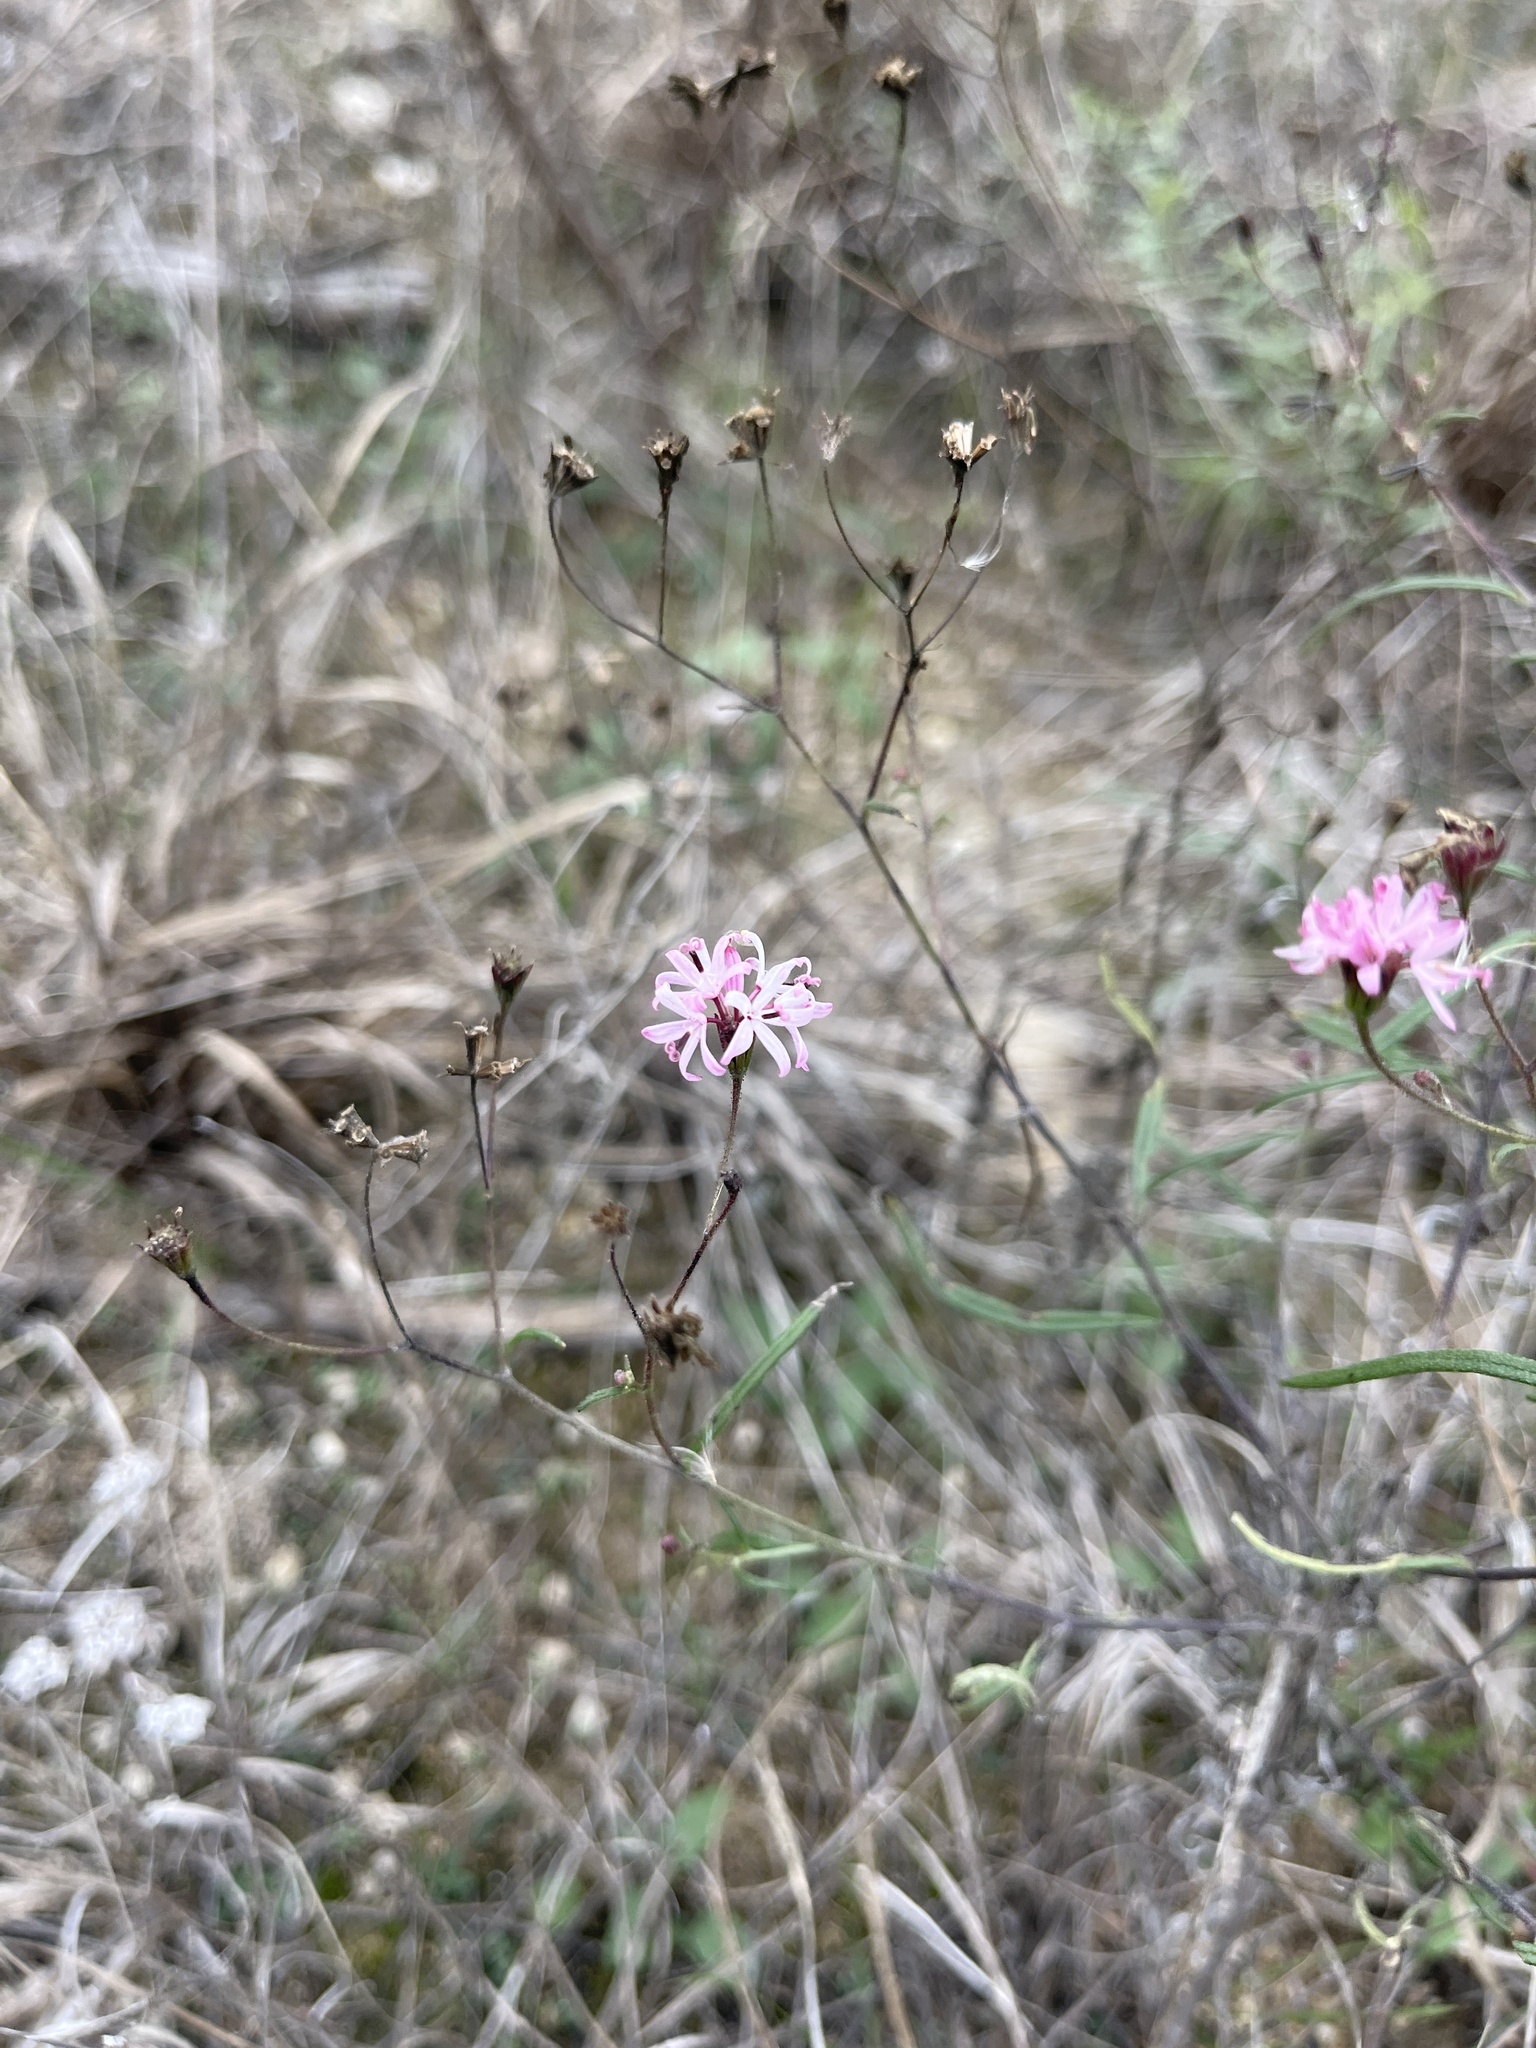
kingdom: Plantae
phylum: Tracheophyta
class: Magnoliopsida
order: Asterales
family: Asteraceae
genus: Palafoxia
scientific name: Palafoxia callosa
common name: Small palafox
